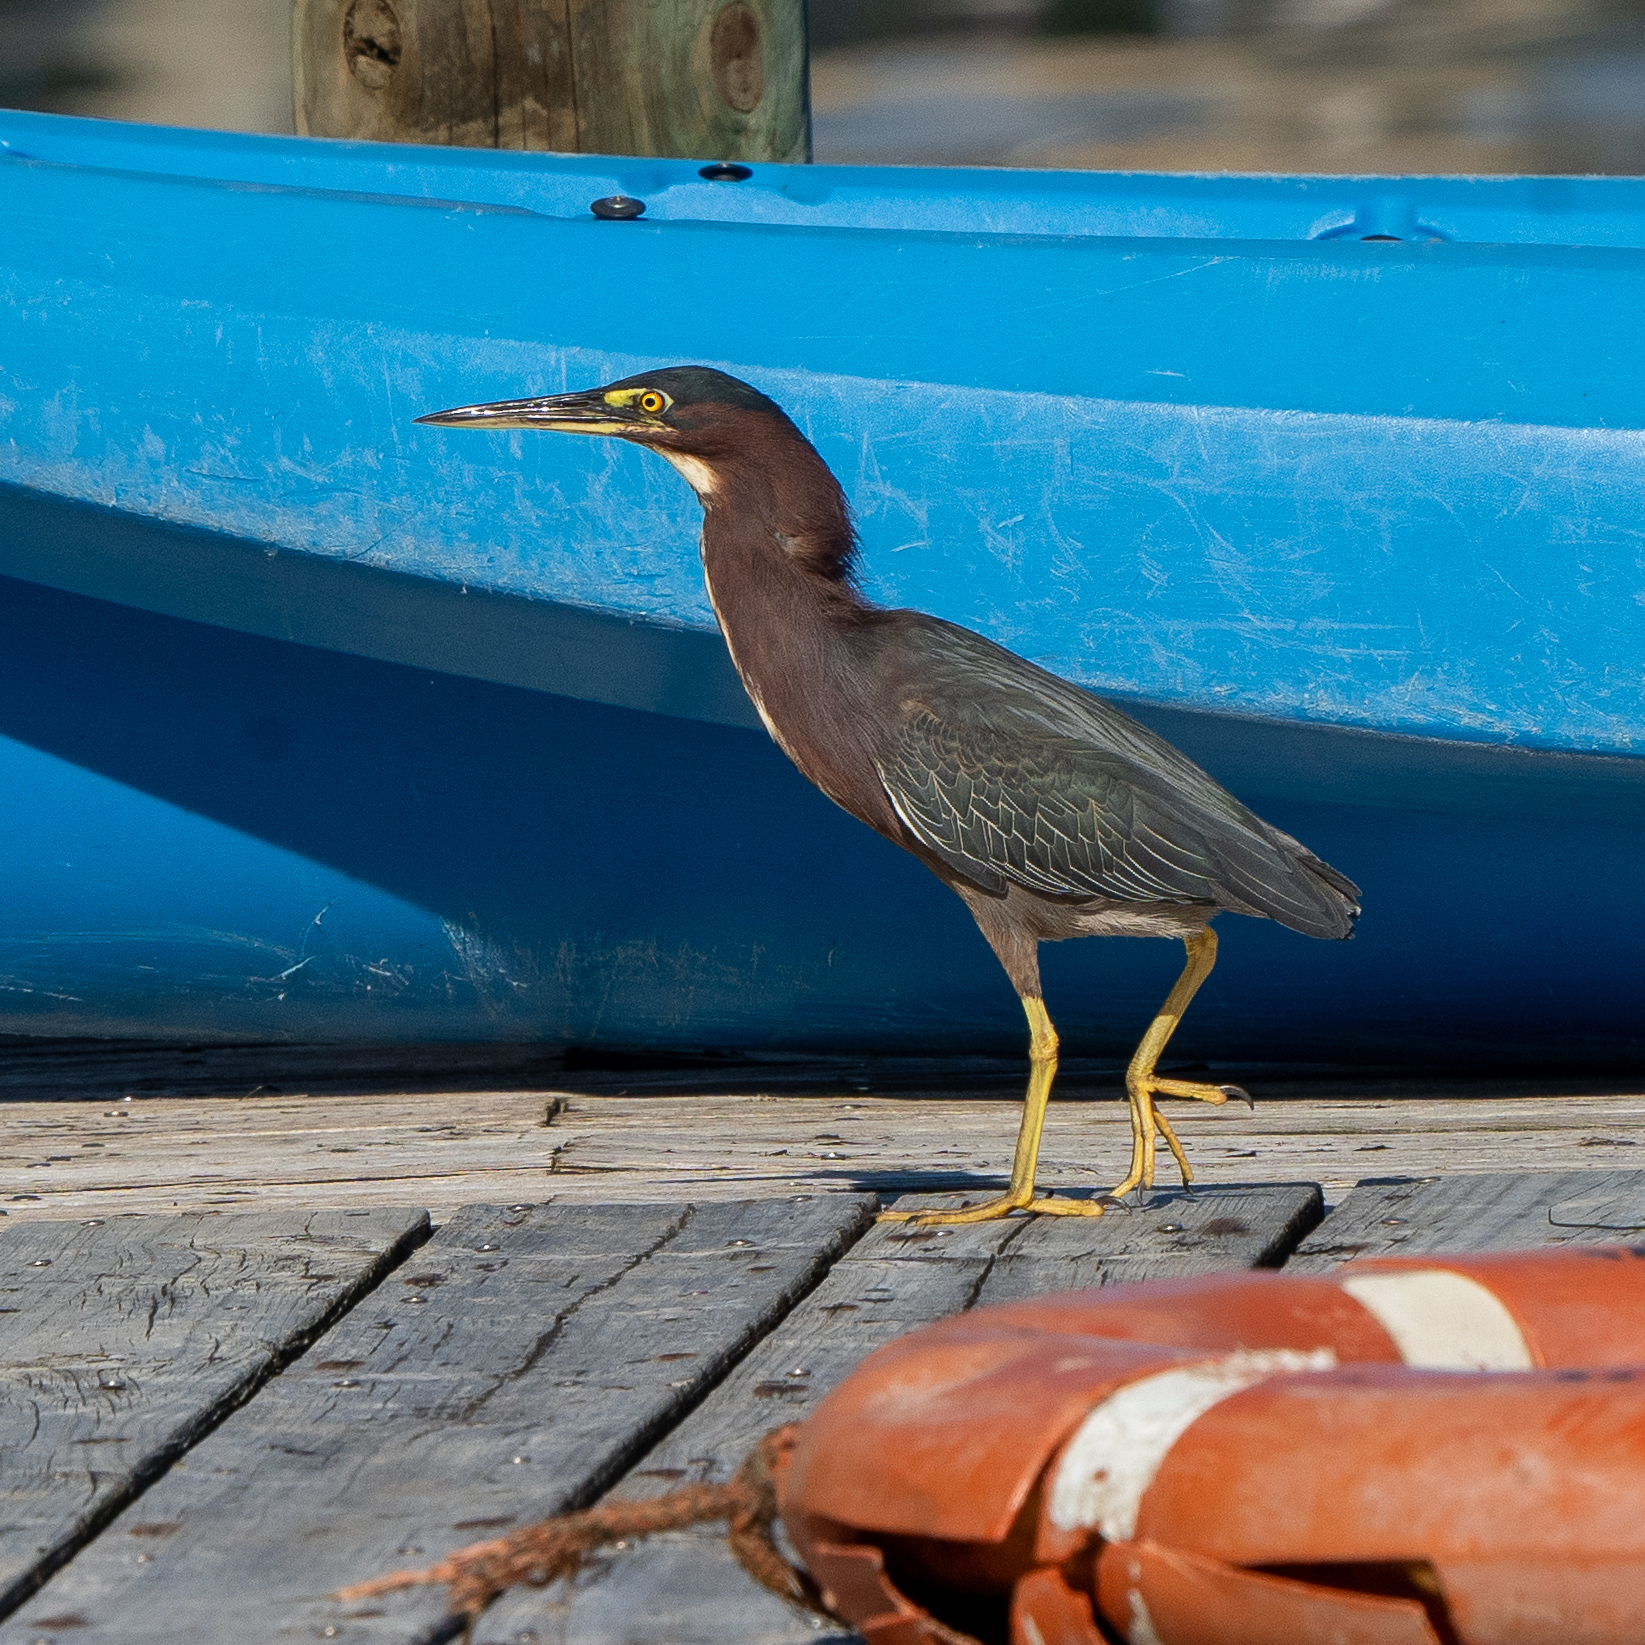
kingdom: Animalia
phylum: Chordata
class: Aves
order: Pelecaniformes
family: Ardeidae
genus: Butorides
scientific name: Butorides virescens
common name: Green heron
